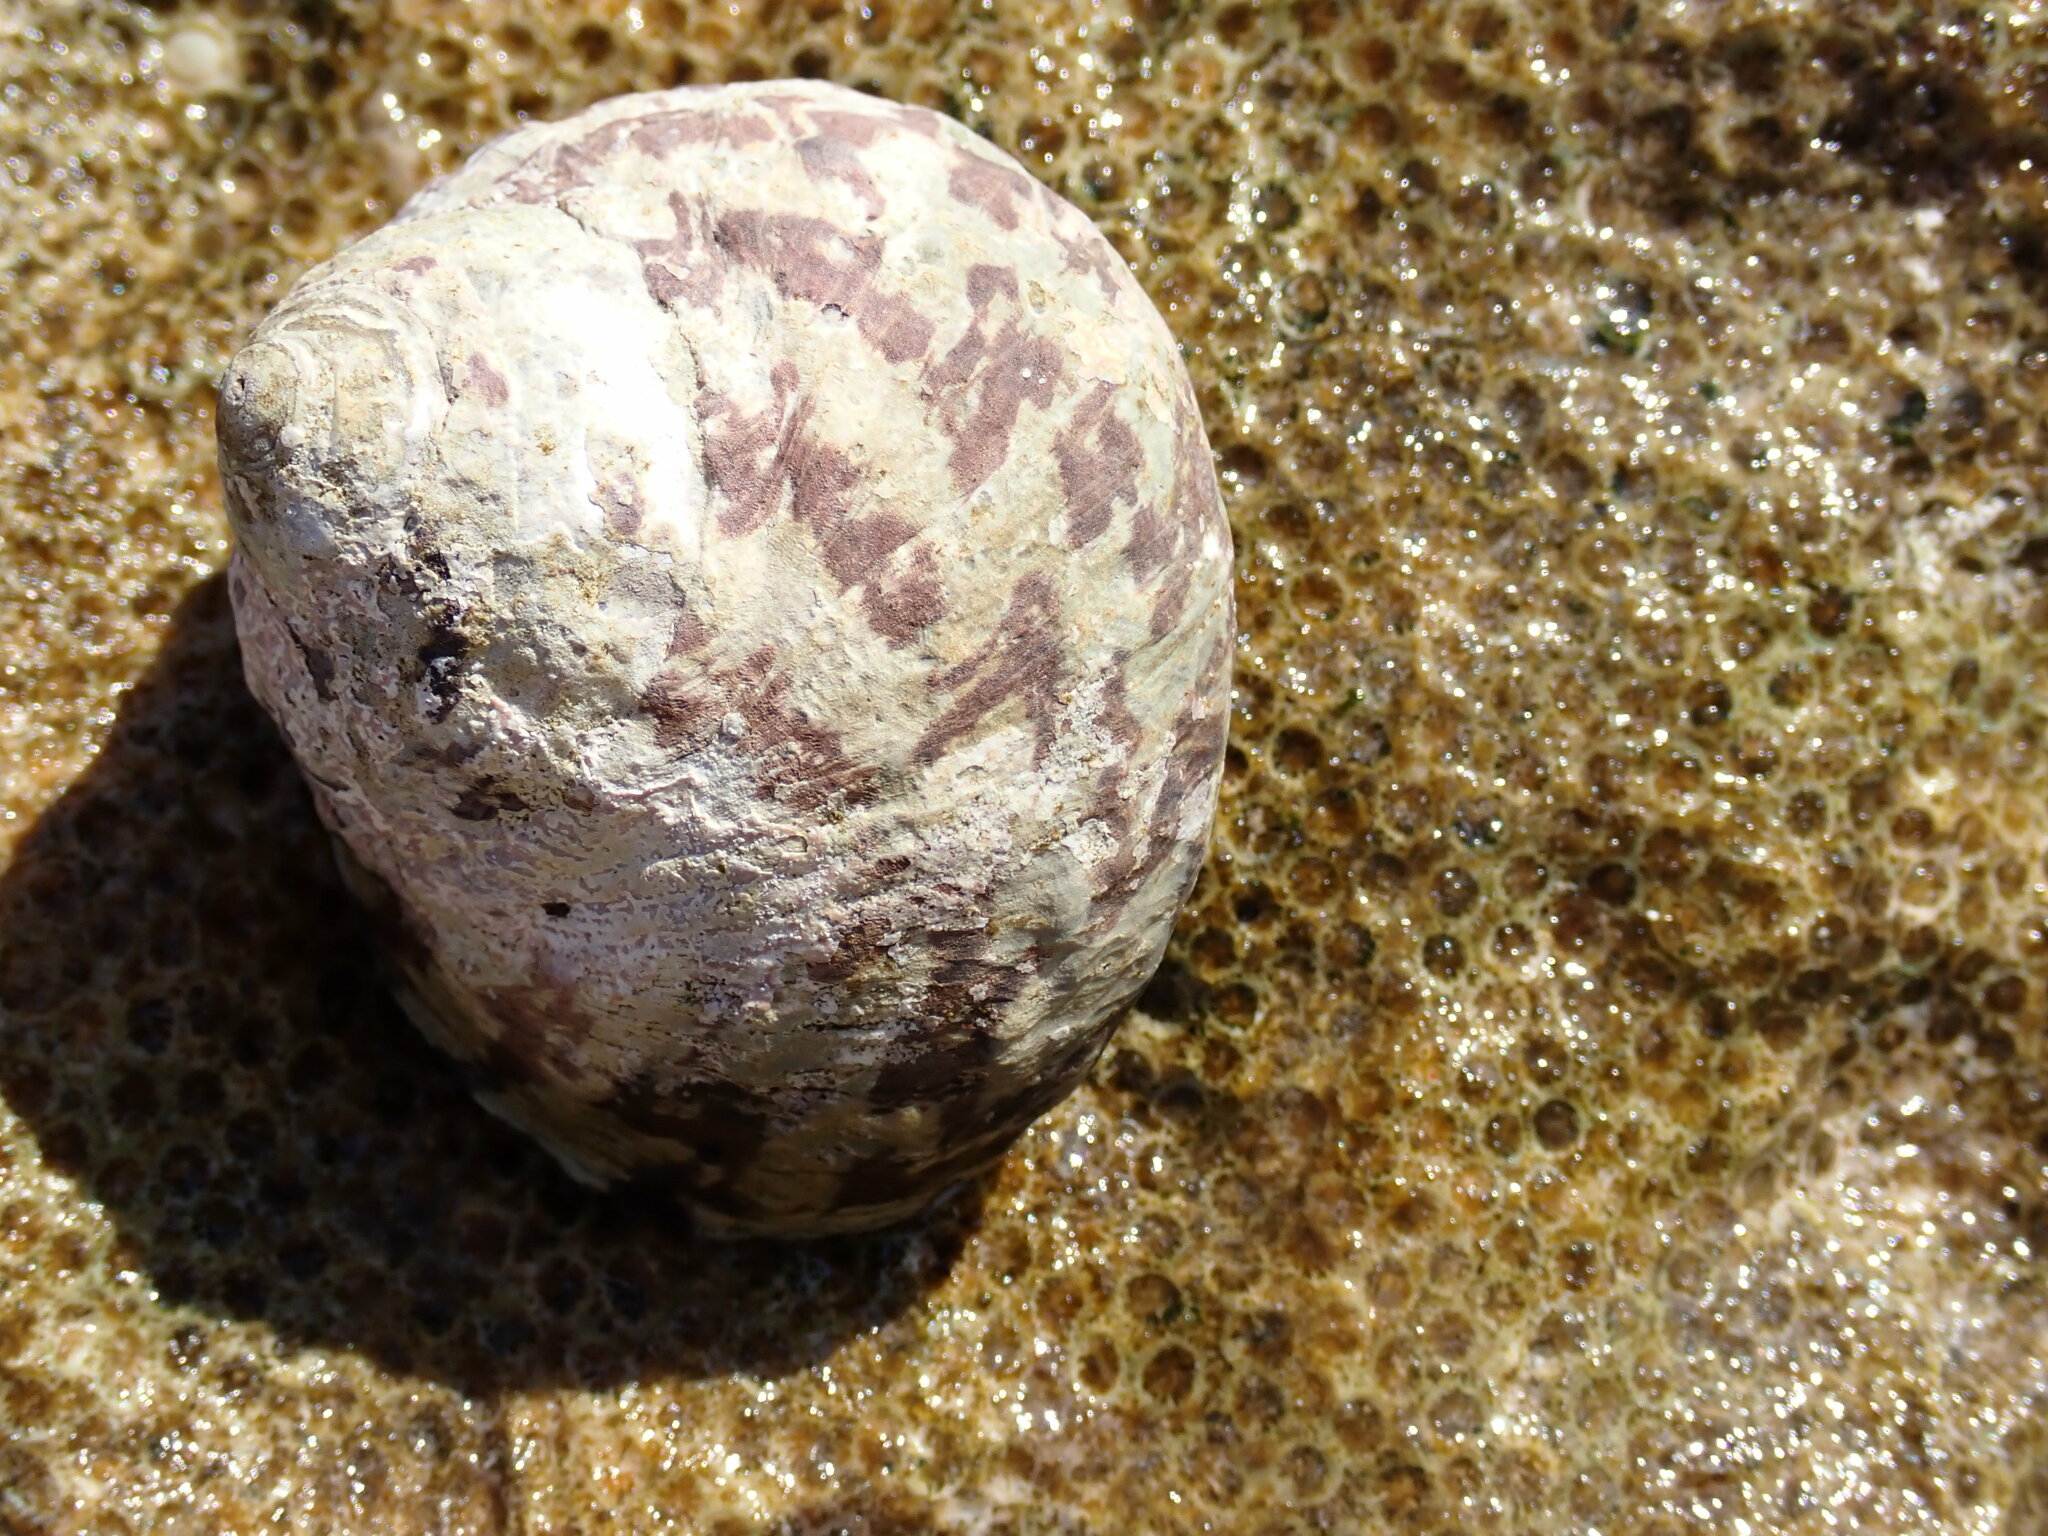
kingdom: Animalia
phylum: Mollusca
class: Gastropoda
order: Trochida
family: Tegulidae
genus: Cittarium
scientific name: Cittarium pica
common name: West indian topshell
